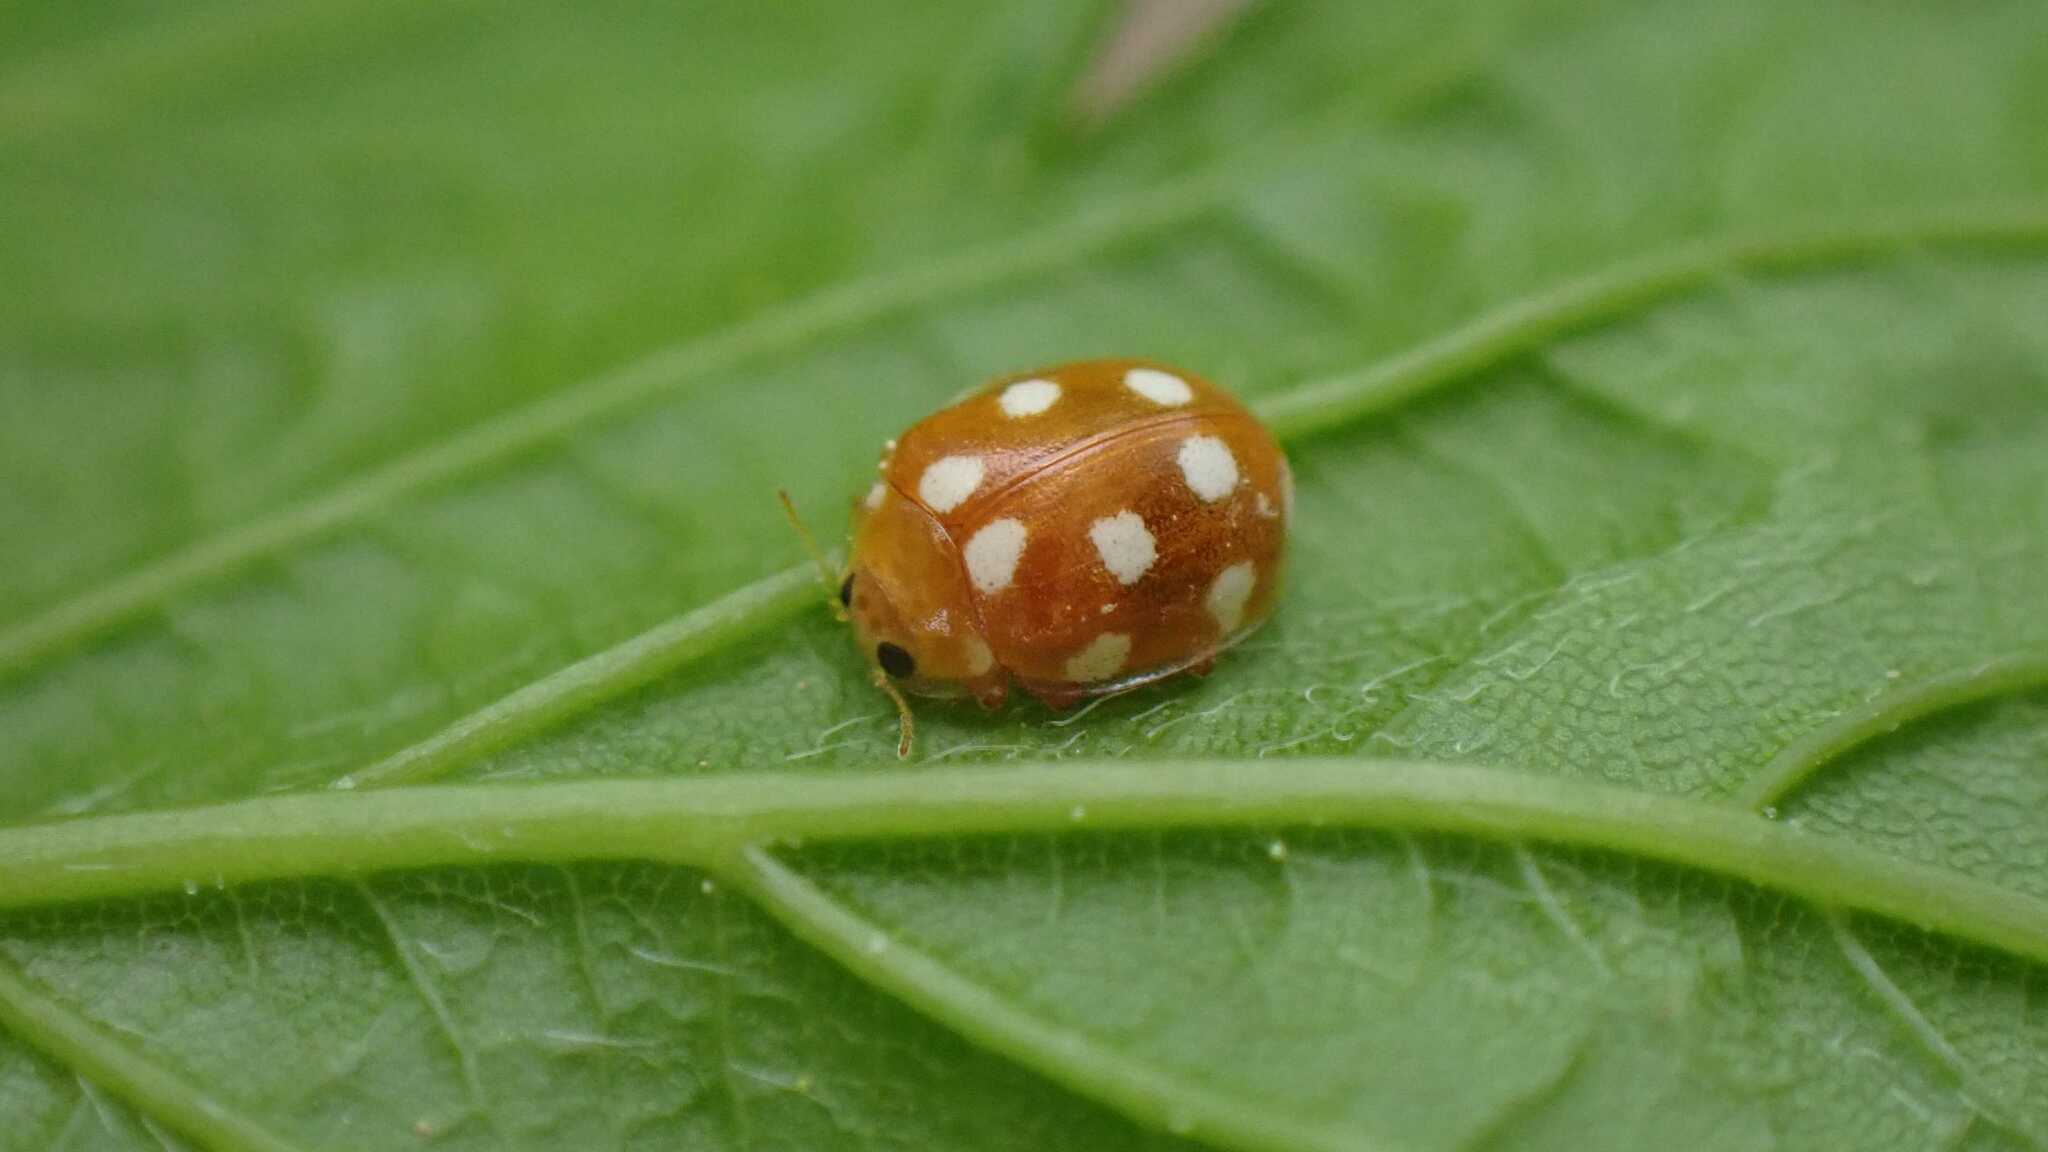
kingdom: Animalia
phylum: Arthropoda
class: Insecta
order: Coleoptera
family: Coccinellidae
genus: Vibidia
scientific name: Vibidia duodecimguttata
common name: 12-spot ladybird
